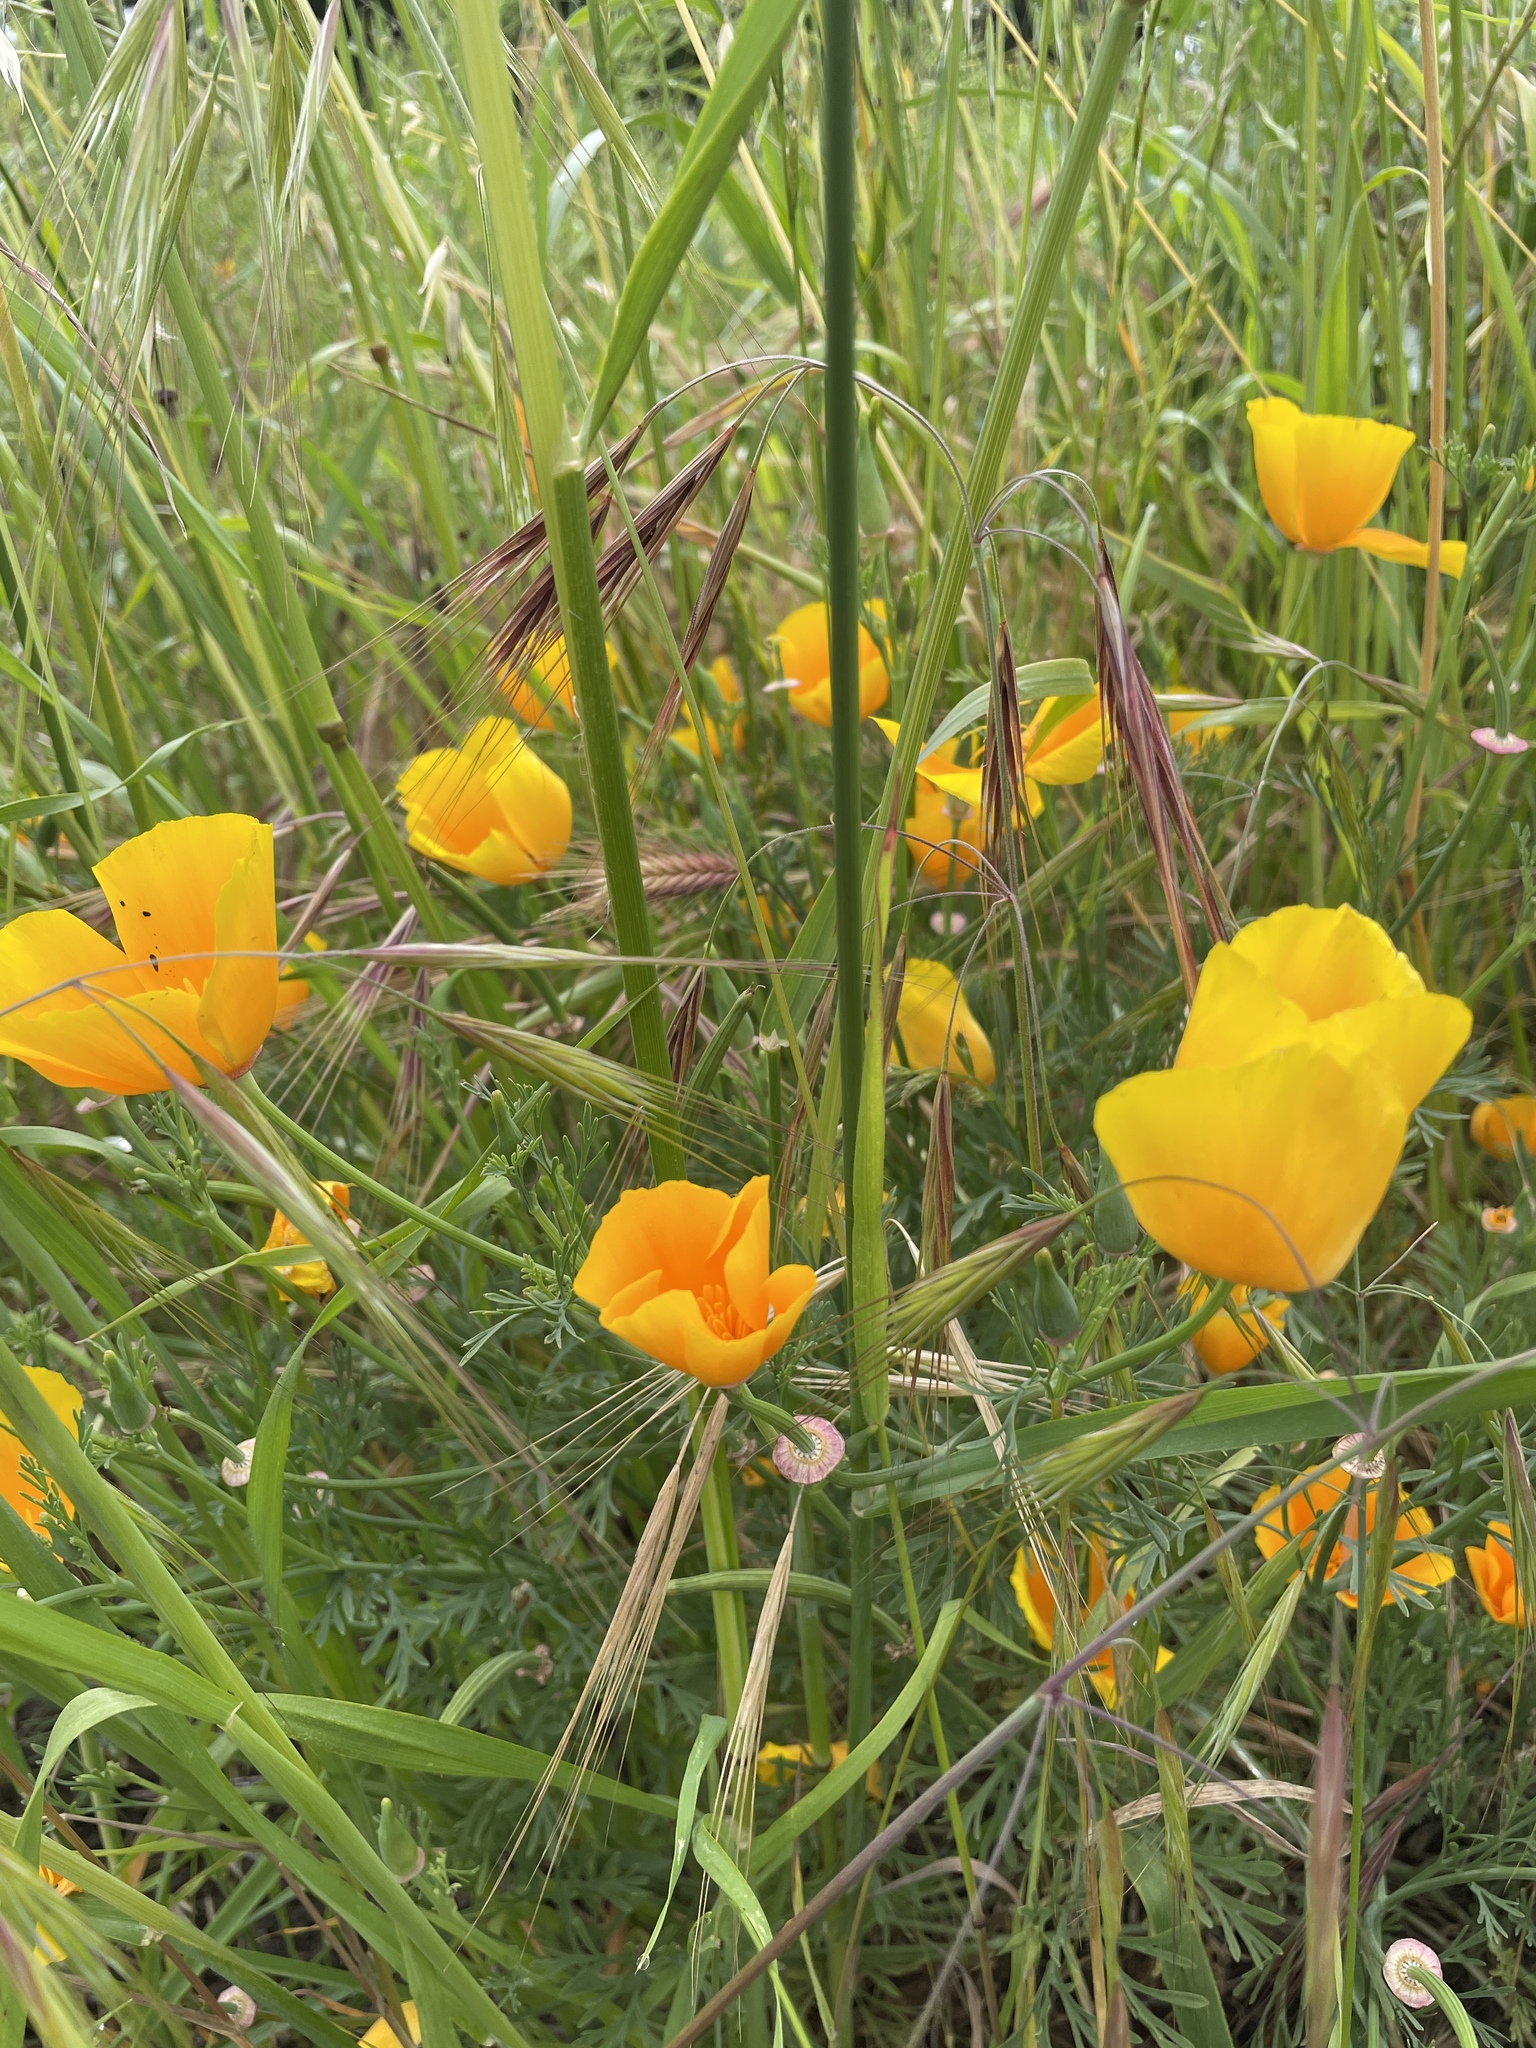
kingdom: Plantae
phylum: Tracheophyta
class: Magnoliopsida
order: Ranunculales
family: Papaveraceae
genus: Eschscholzia
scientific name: Eschscholzia californica
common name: California poppy
